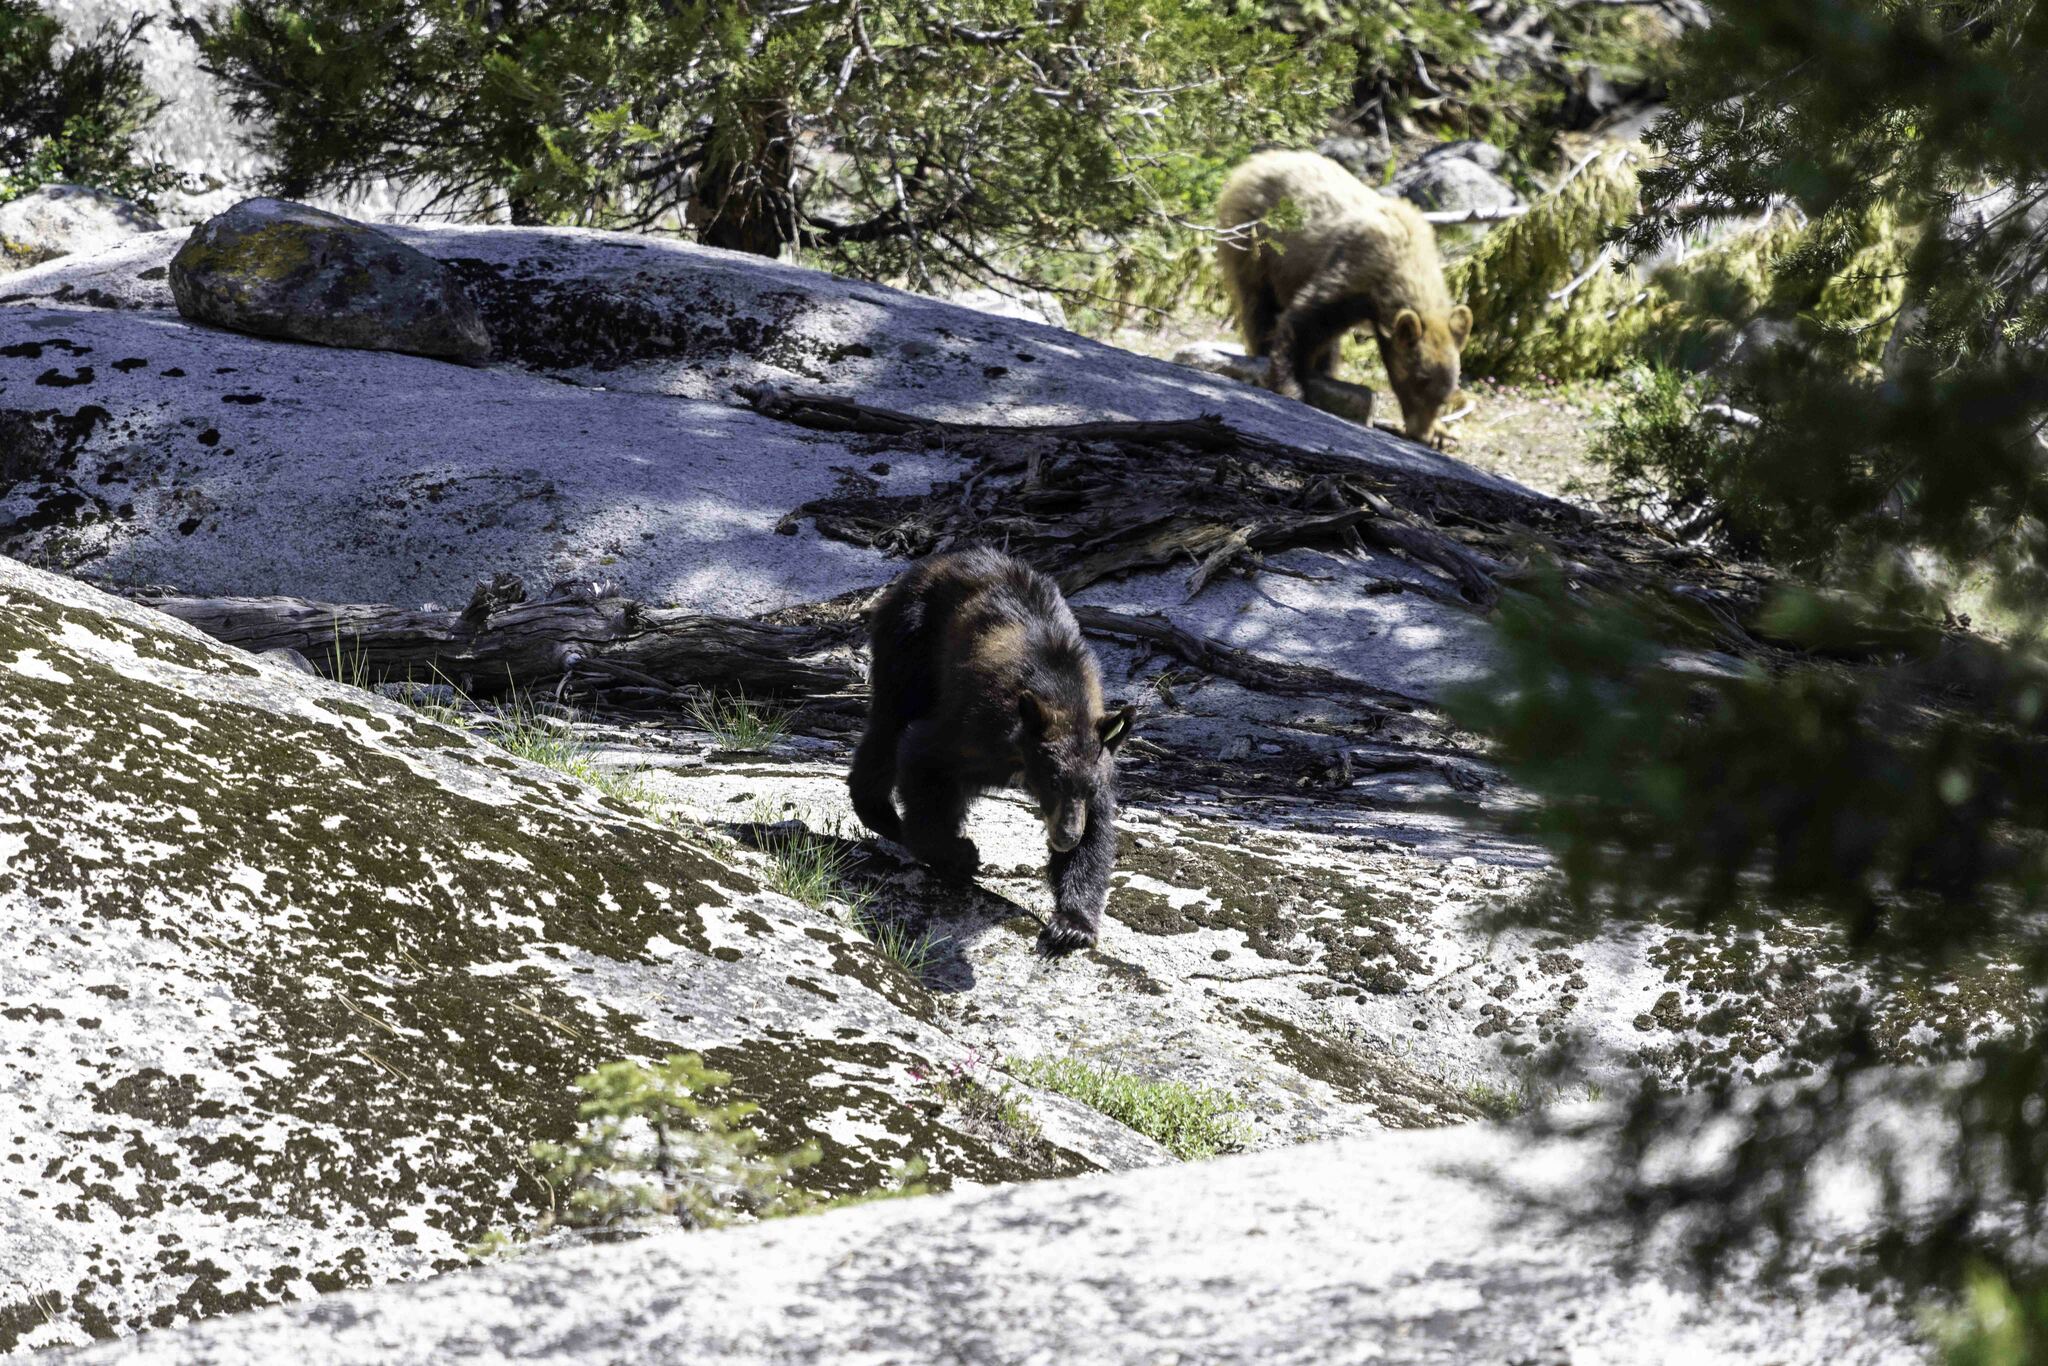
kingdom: Animalia
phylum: Chordata
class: Mammalia
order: Carnivora
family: Ursidae
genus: Ursus
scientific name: Ursus americanus
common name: American black bear
